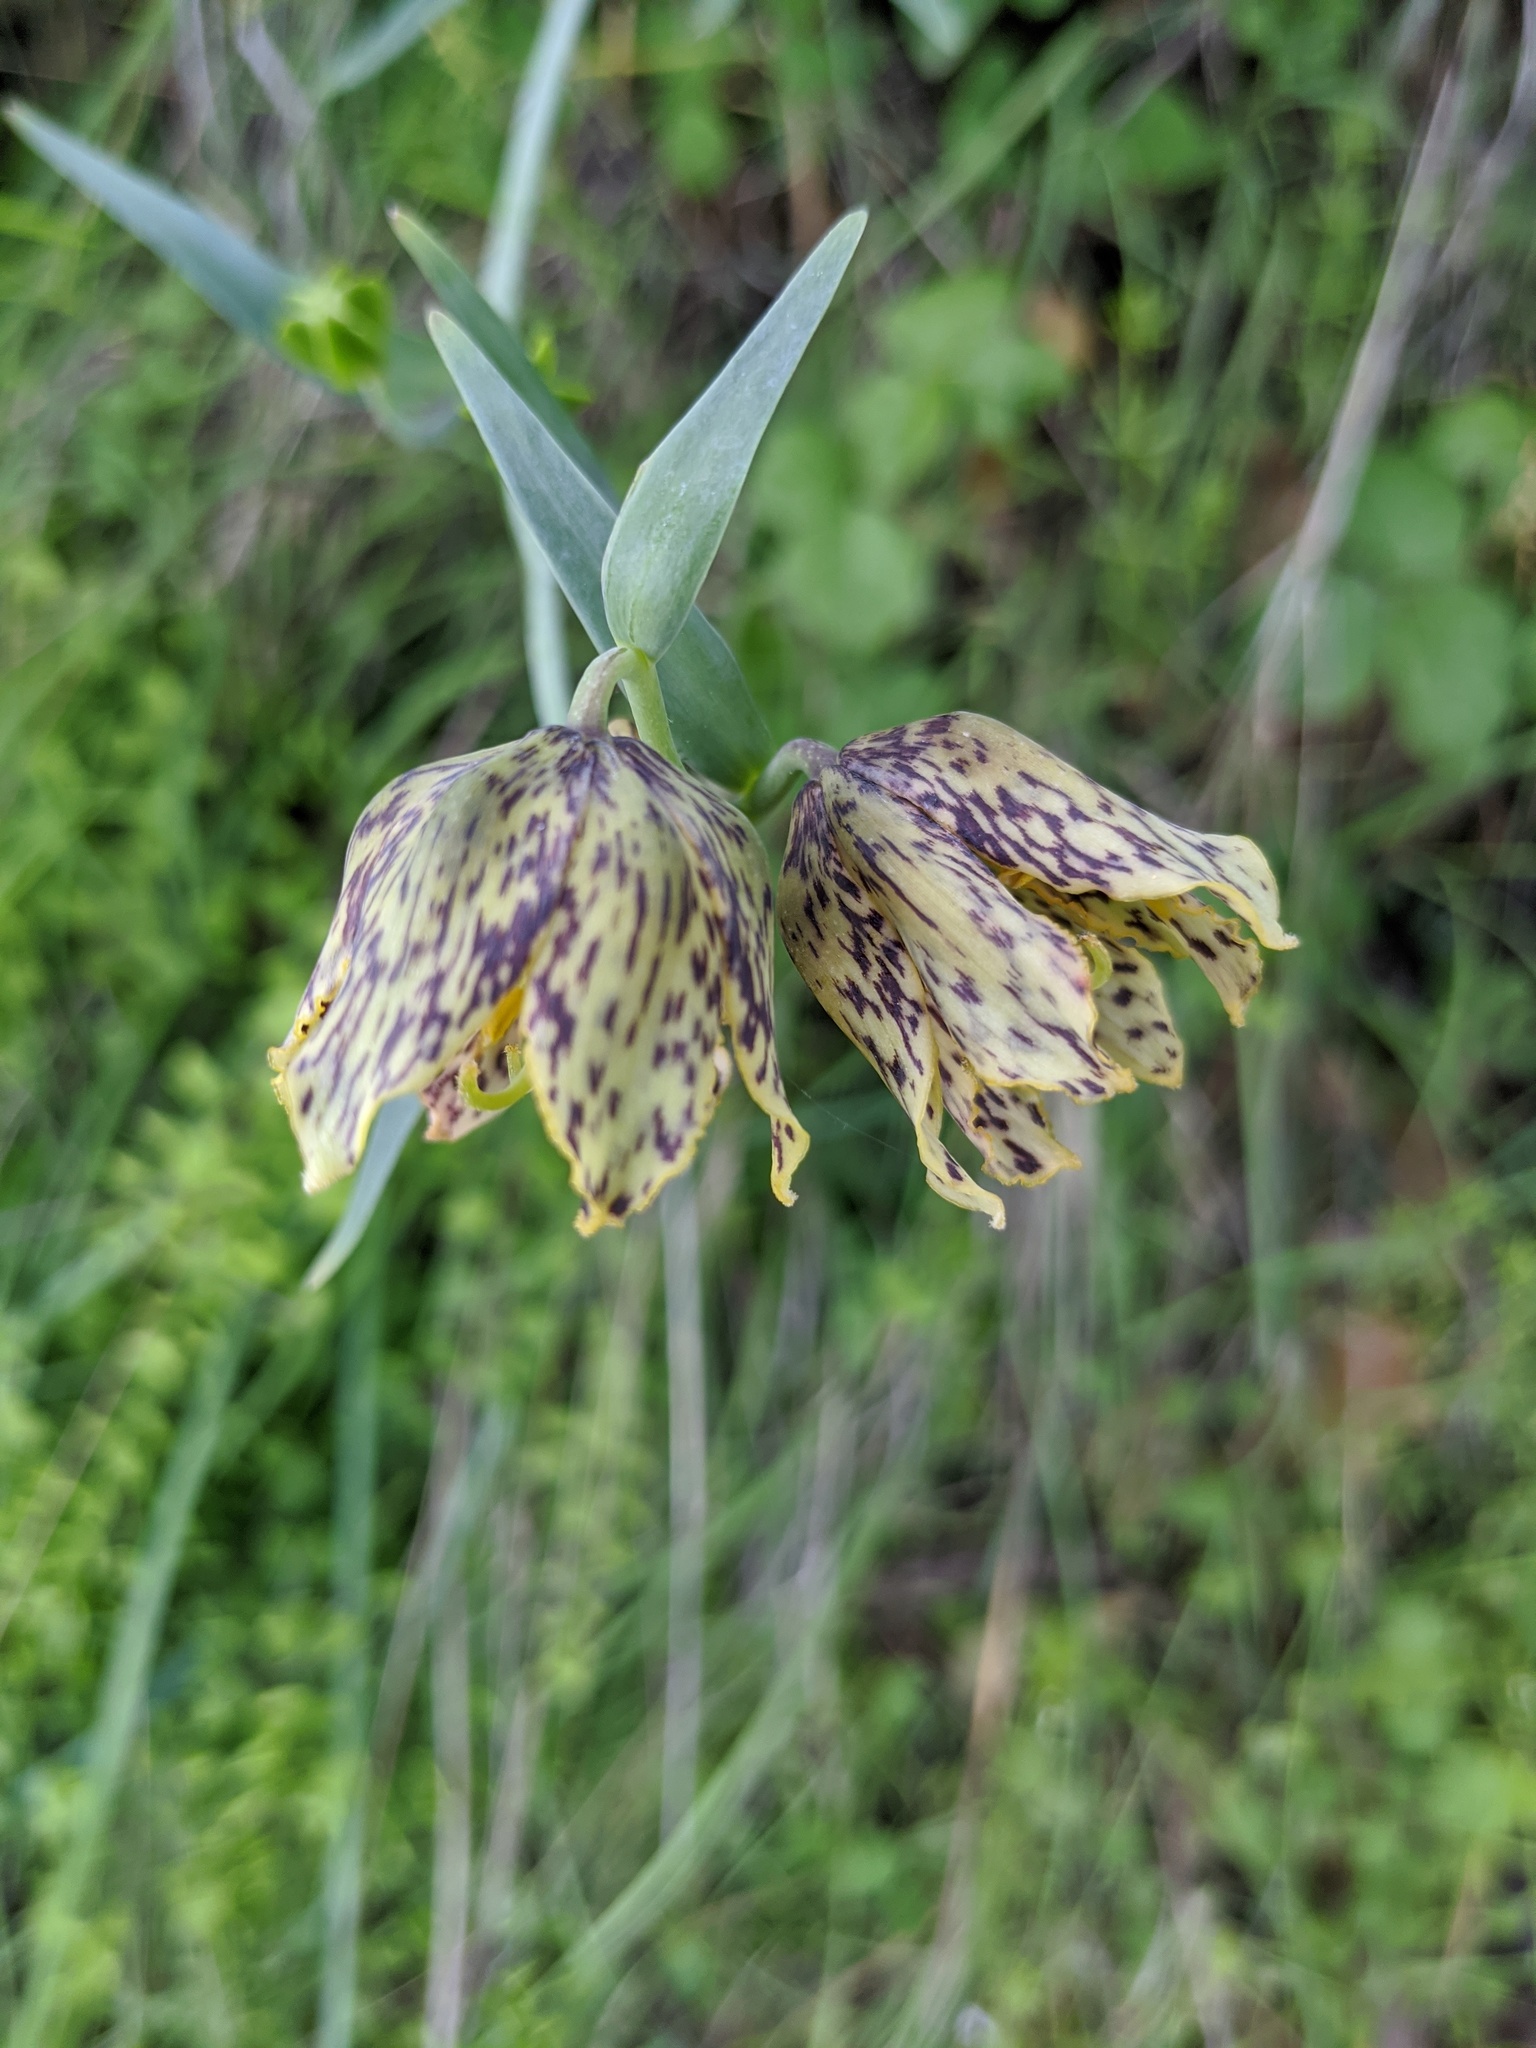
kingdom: Plantae
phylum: Tracheophyta
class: Liliopsida
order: Liliales
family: Liliaceae
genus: Fritillaria
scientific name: Fritillaria affinis
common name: Ojai fritillary
